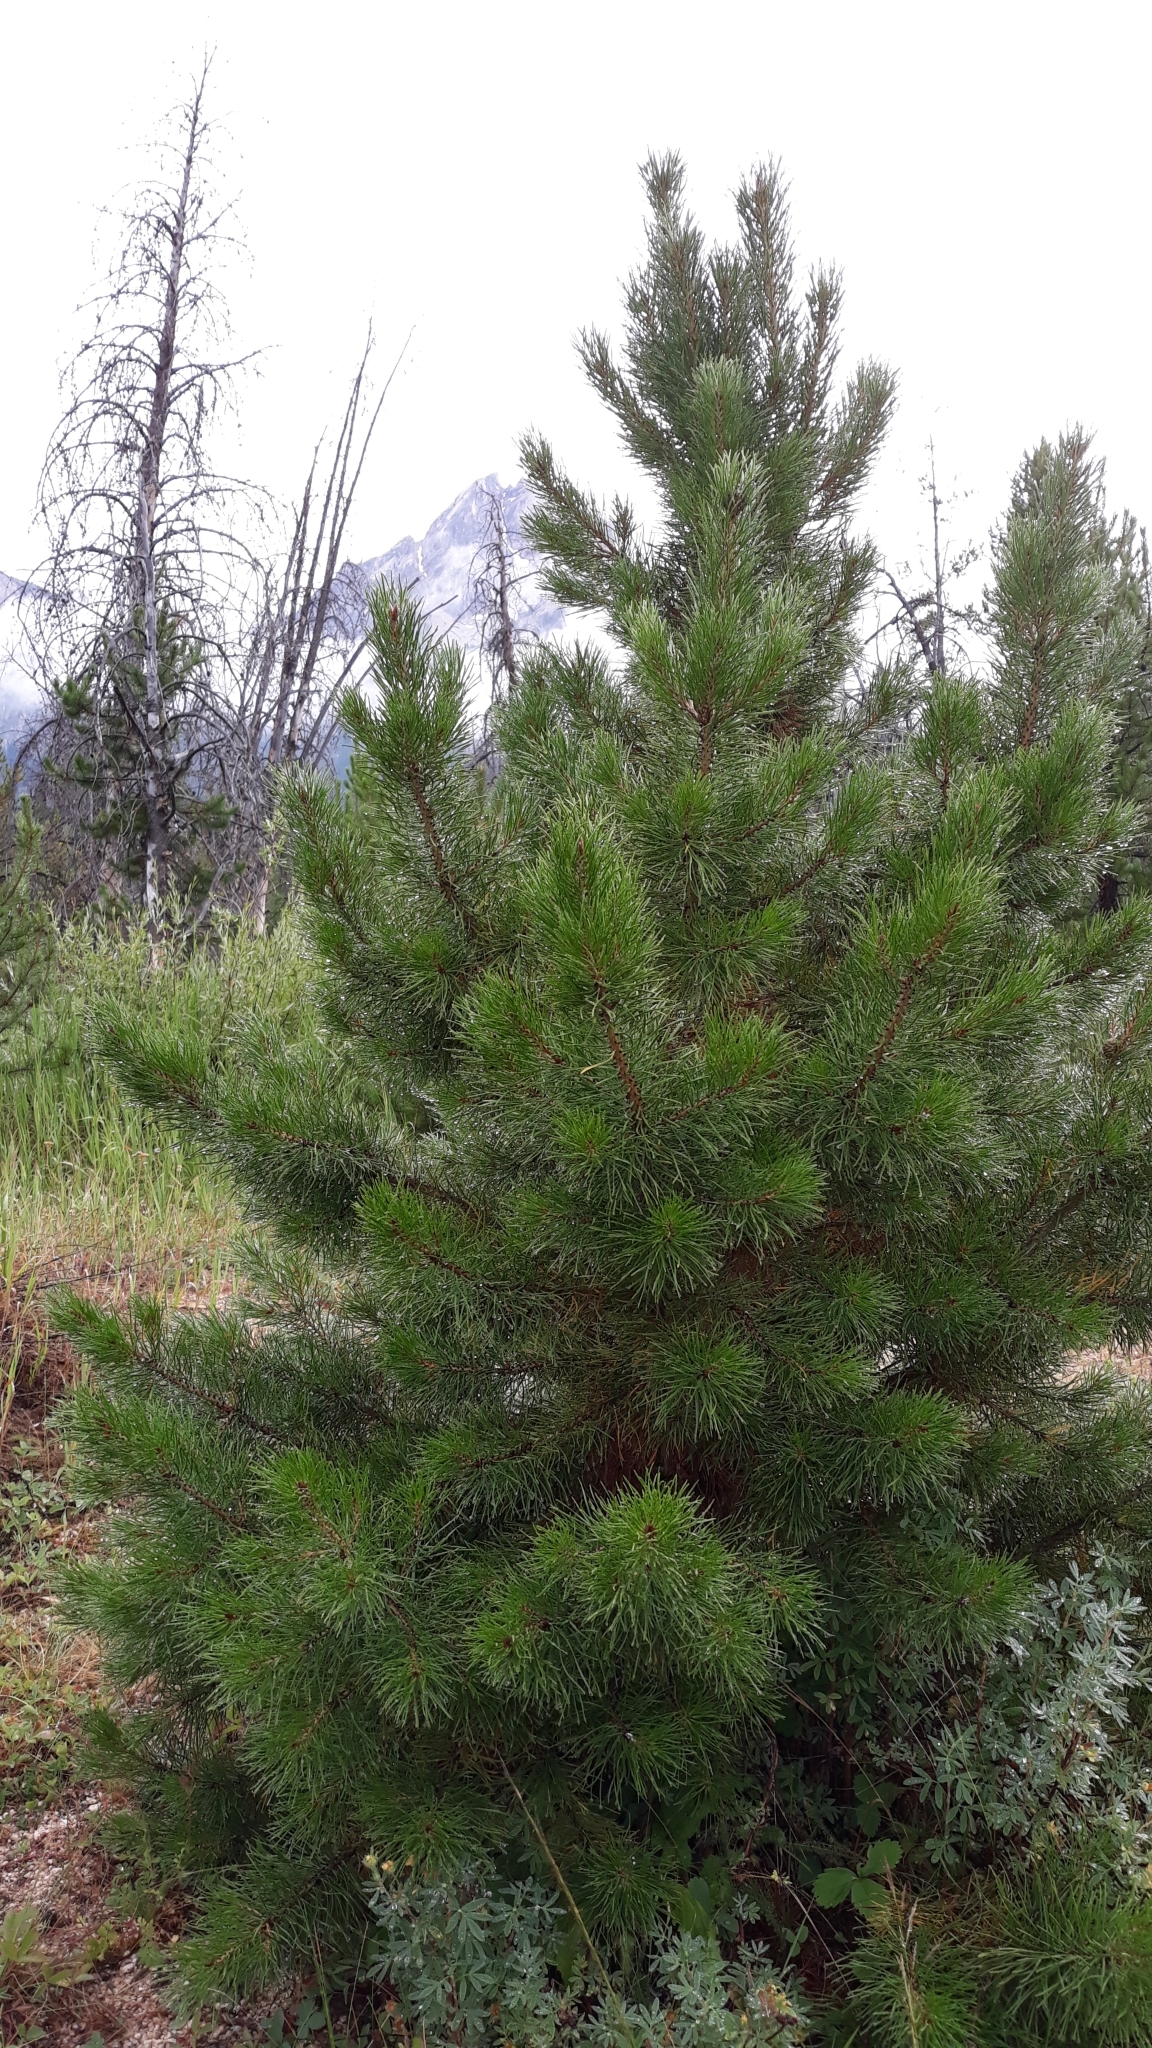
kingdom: Plantae
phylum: Tracheophyta
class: Pinopsida
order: Pinales
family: Pinaceae
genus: Pinus
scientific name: Pinus contorta
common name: Lodgepole pine
